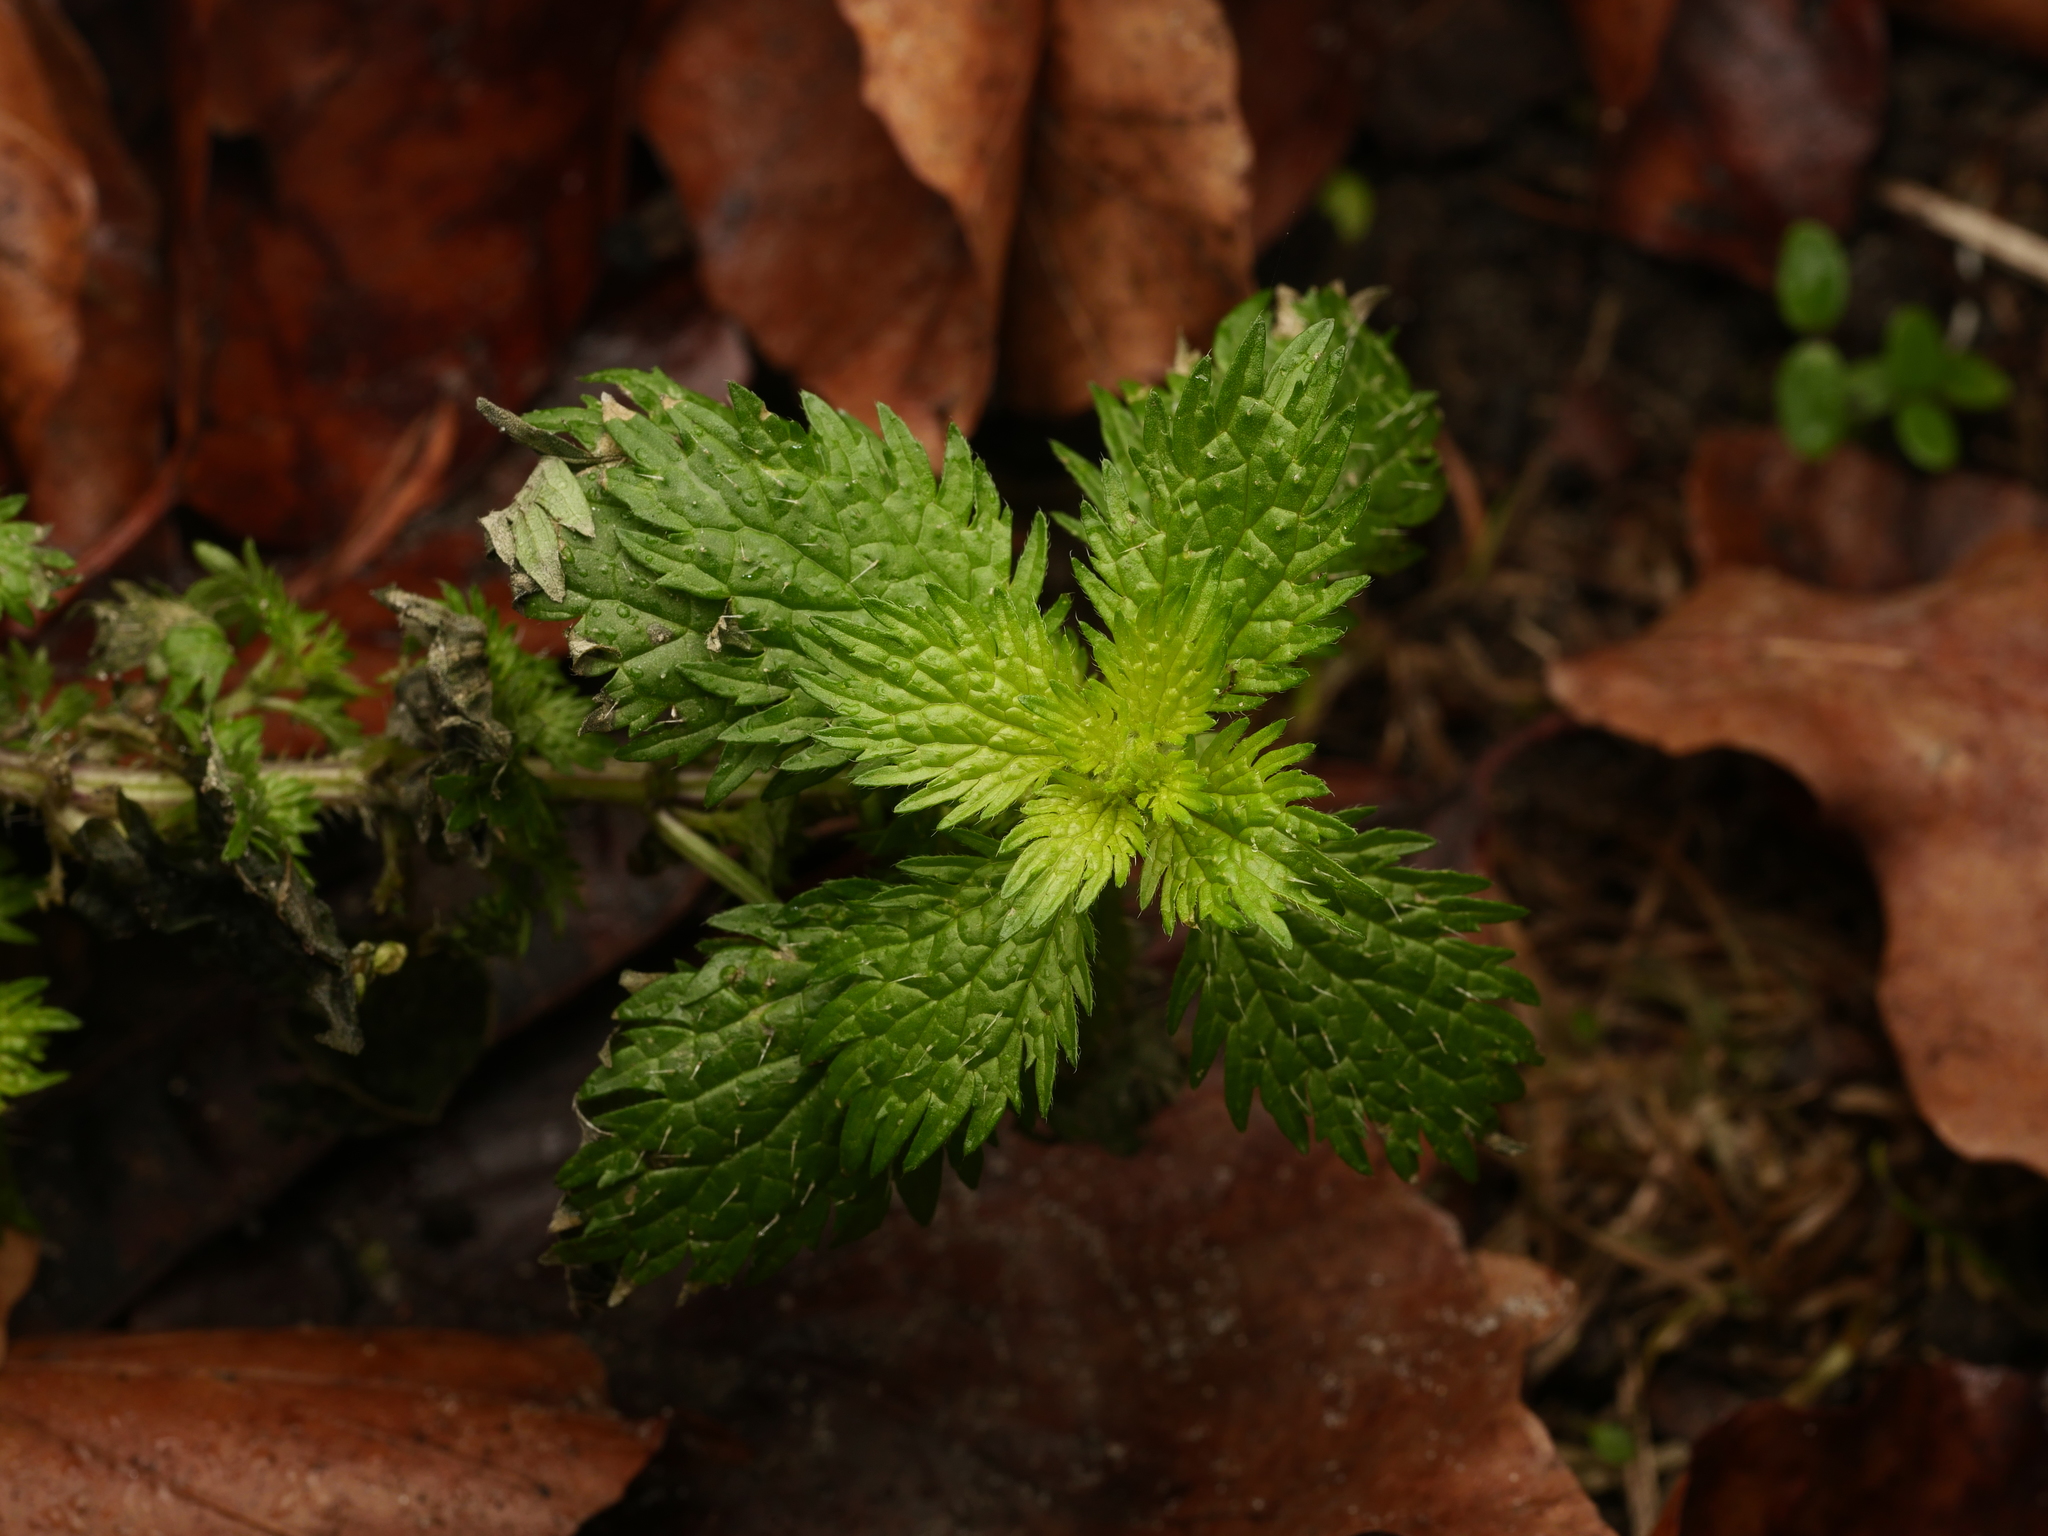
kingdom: Plantae
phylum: Tracheophyta
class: Magnoliopsida
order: Rosales
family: Urticaceae
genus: Urtica
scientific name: Urtica urens
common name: Dwarf nettle
